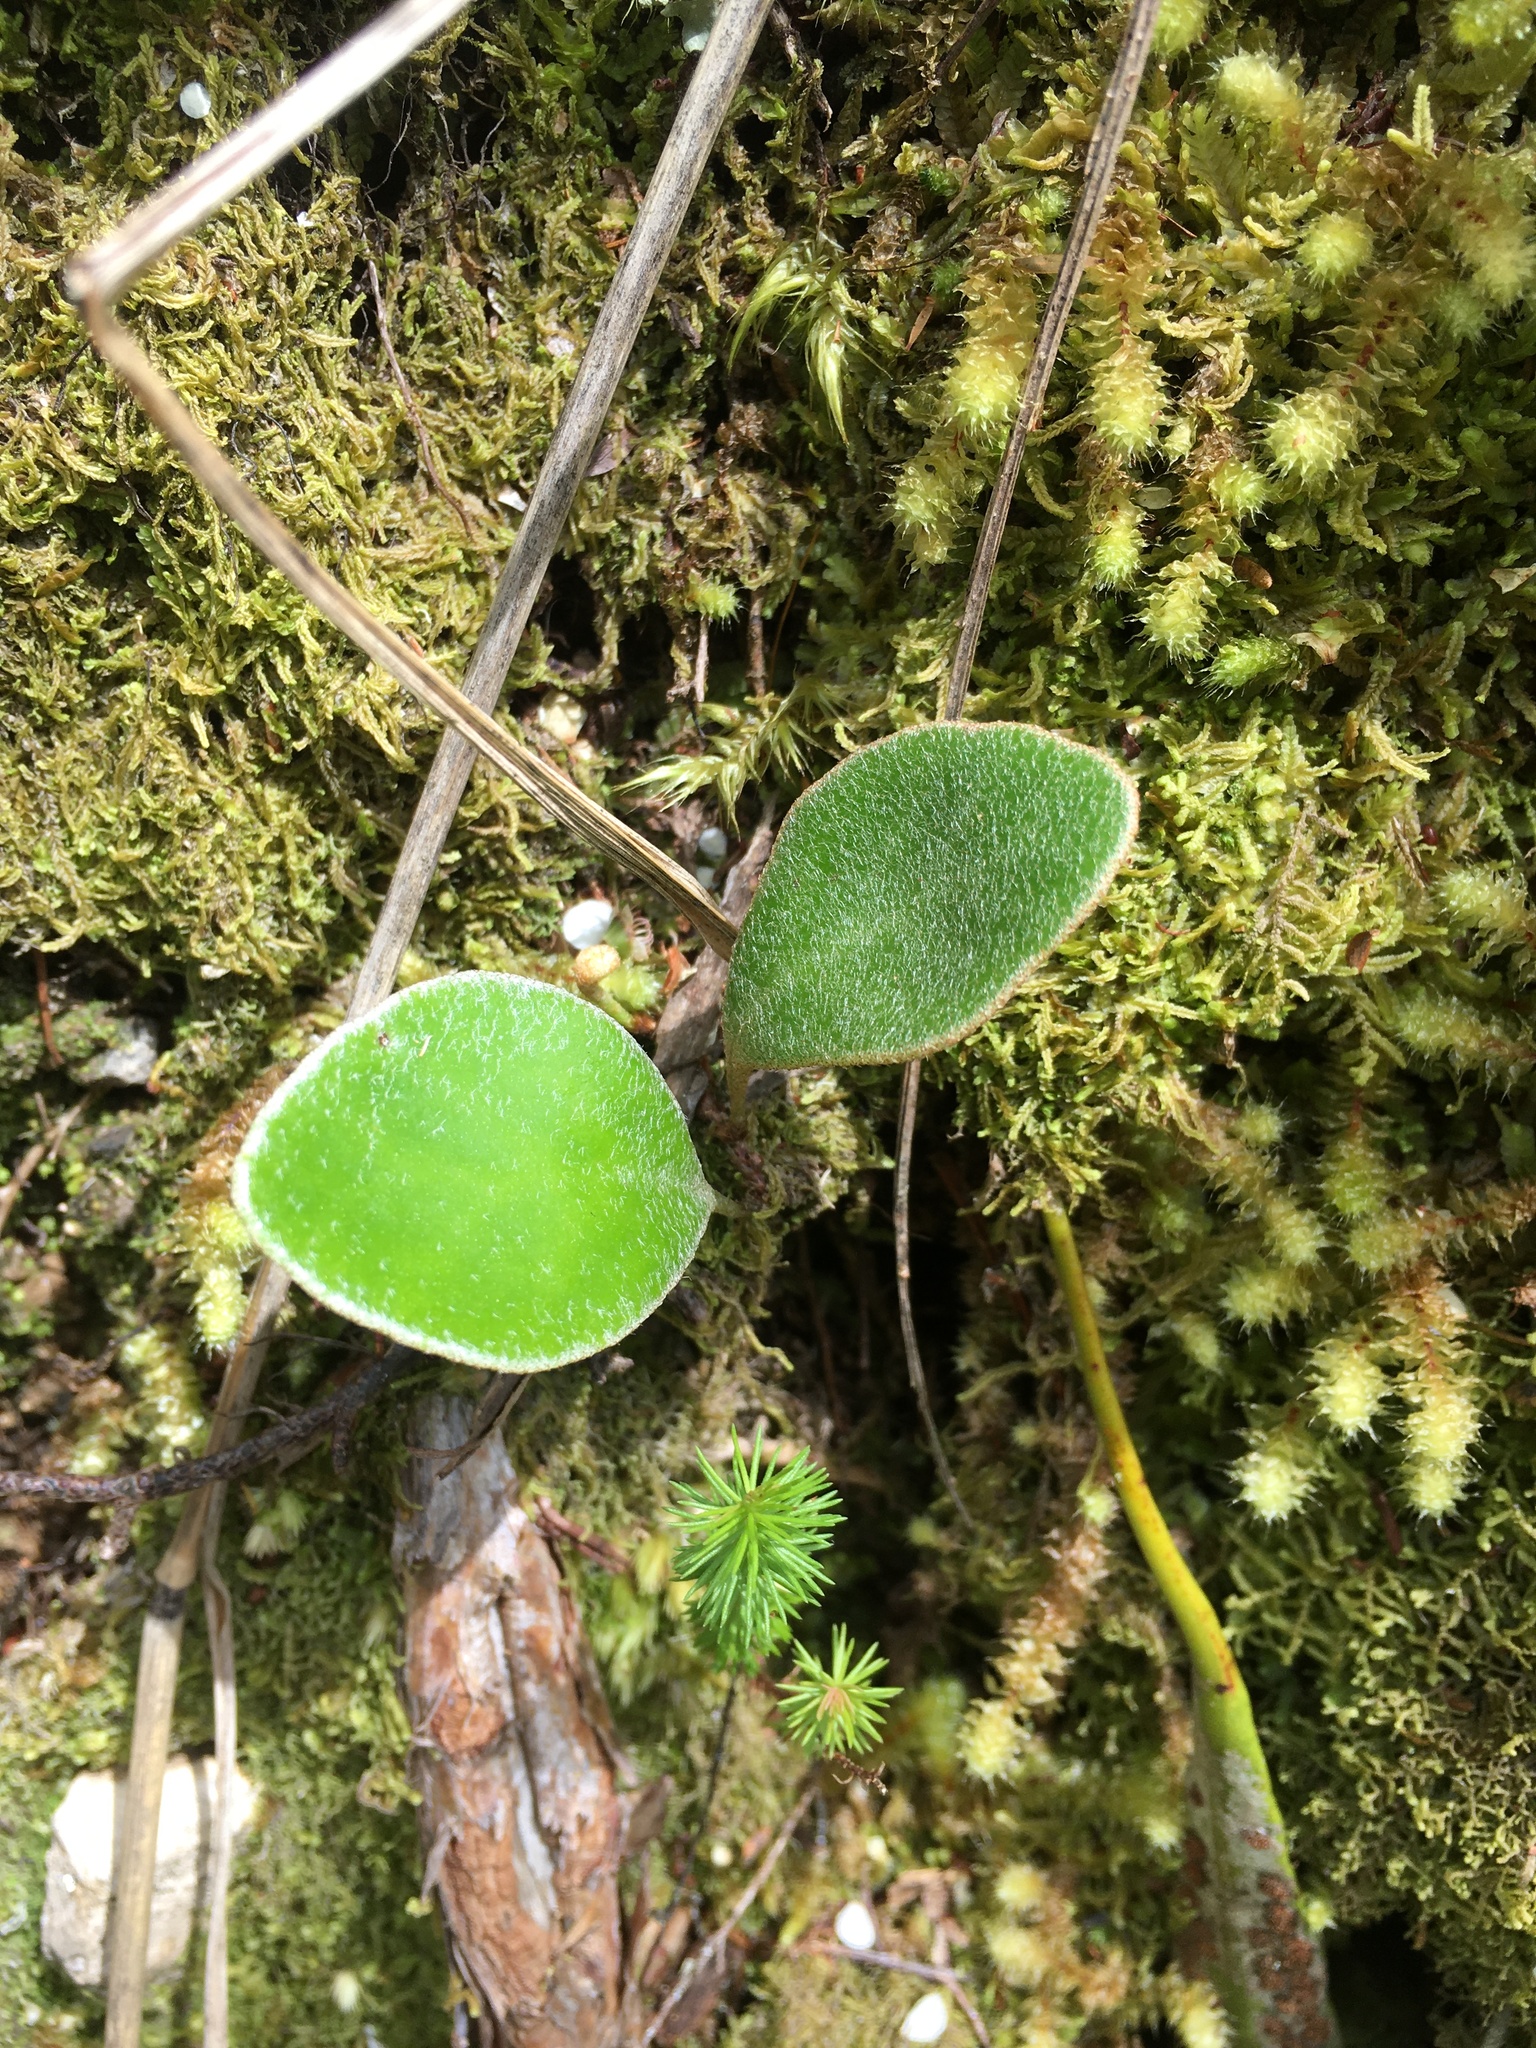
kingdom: Plantae
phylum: Tracheophyta
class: Polypodiopsida
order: Polypodiales
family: Polypodiaceae
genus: Pyrrosia
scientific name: Pyrrosia eleagnifolia
